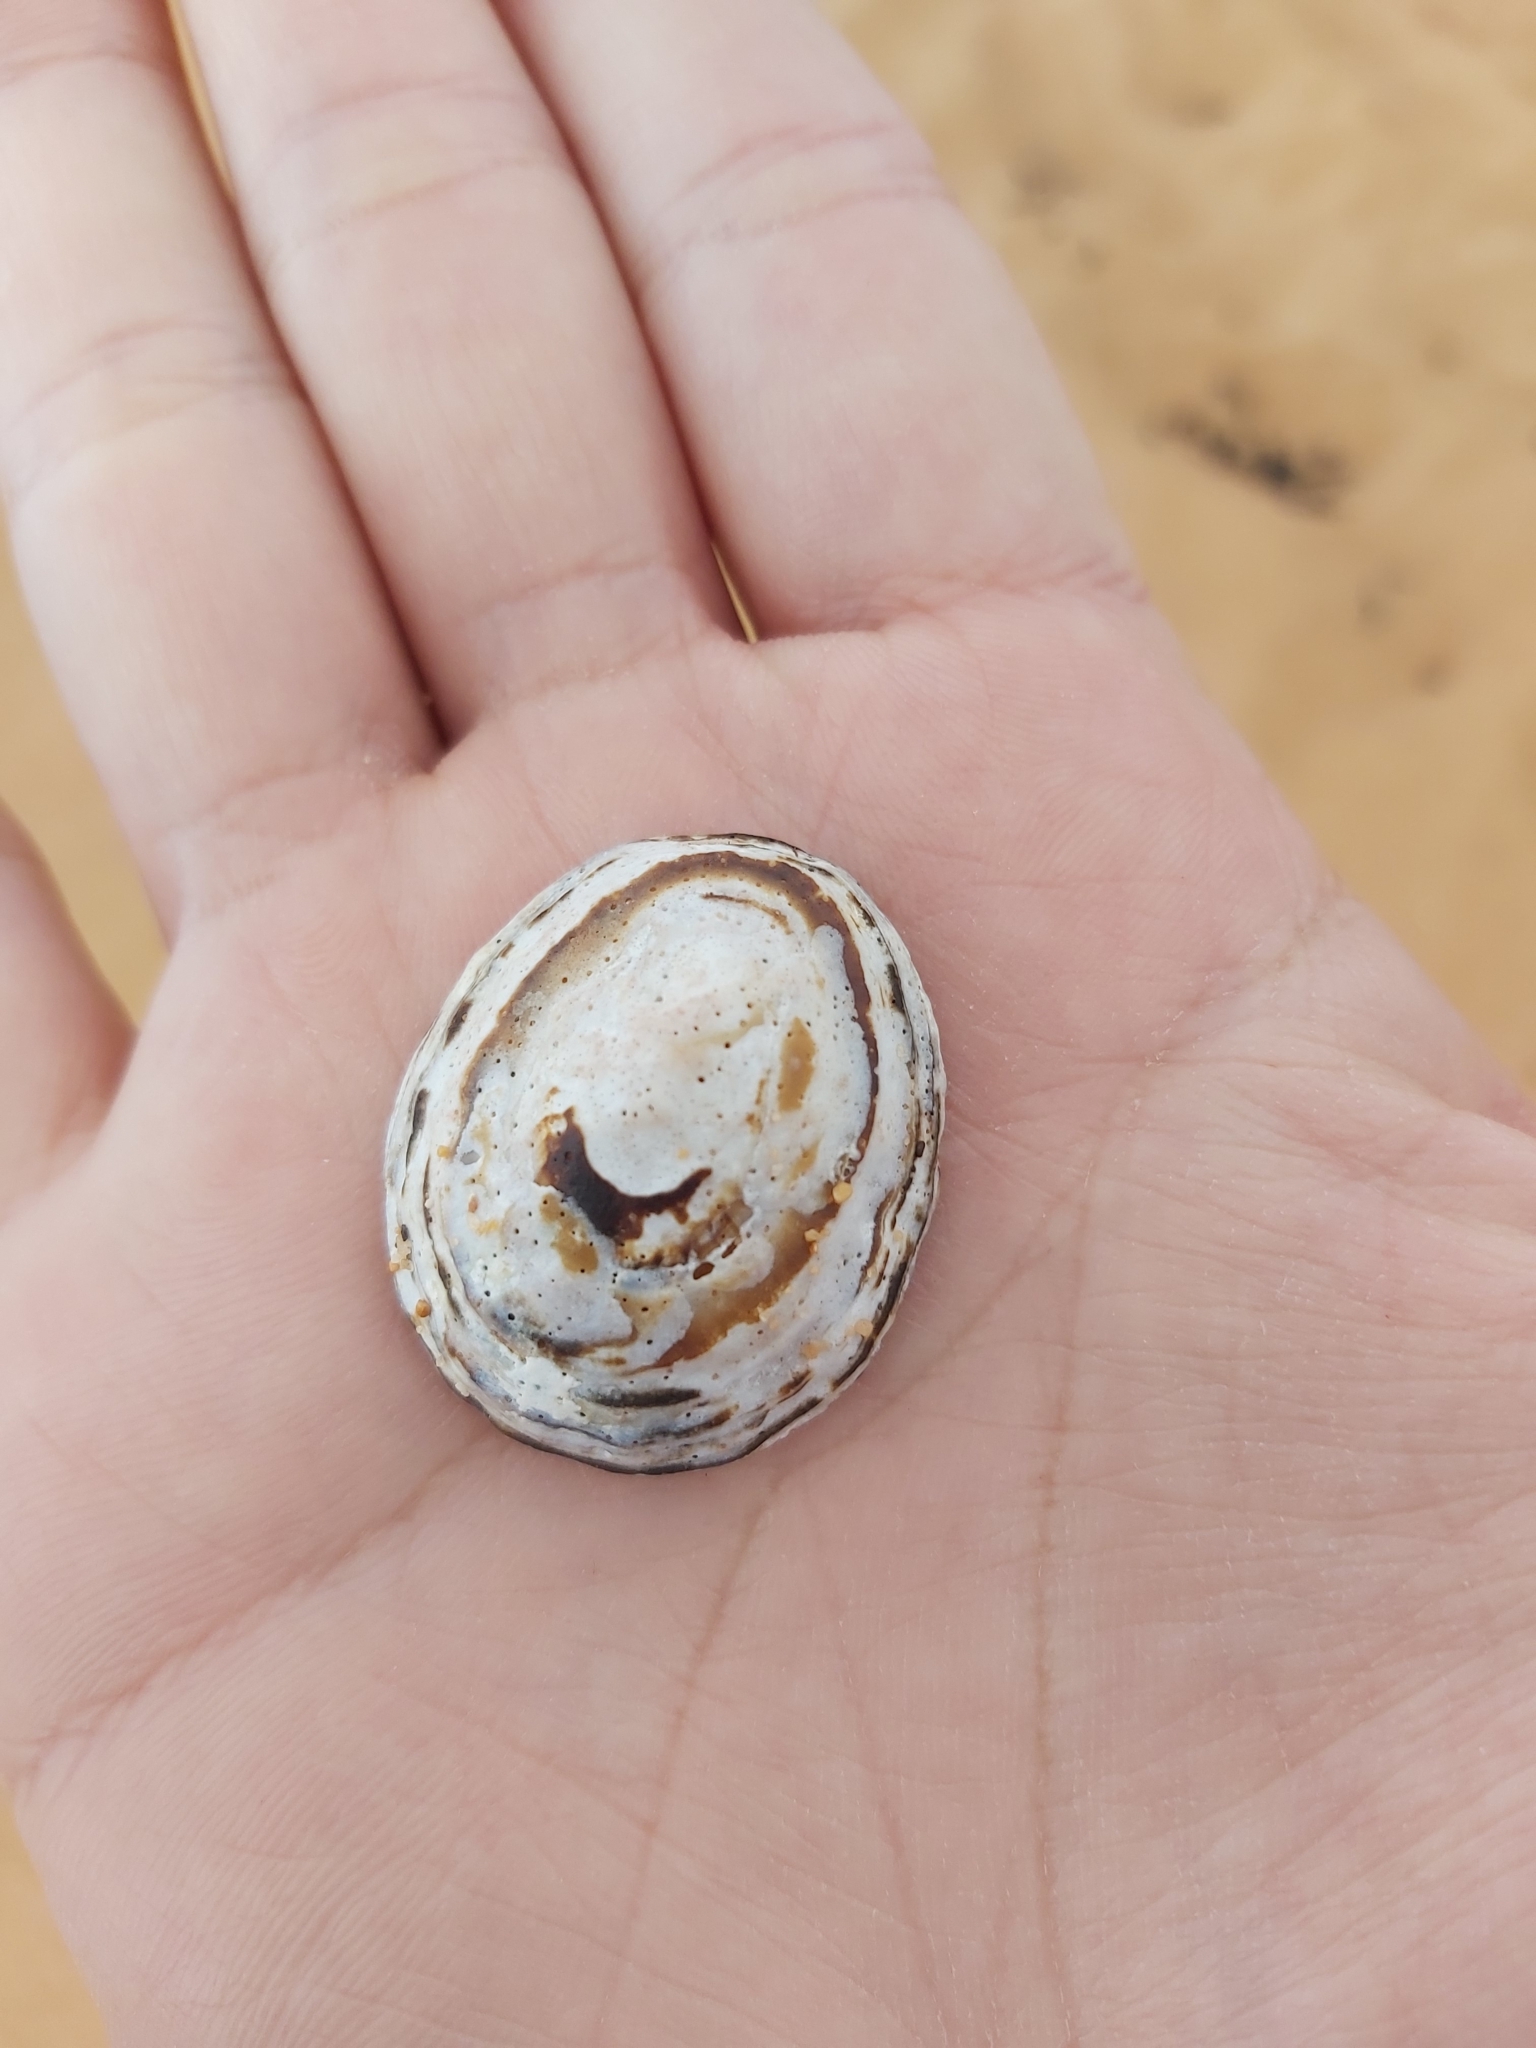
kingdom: Animalia
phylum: Mollusca
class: Gastropoda
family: Nacellidae
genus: Cellana
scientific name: Cellana tramoserica
